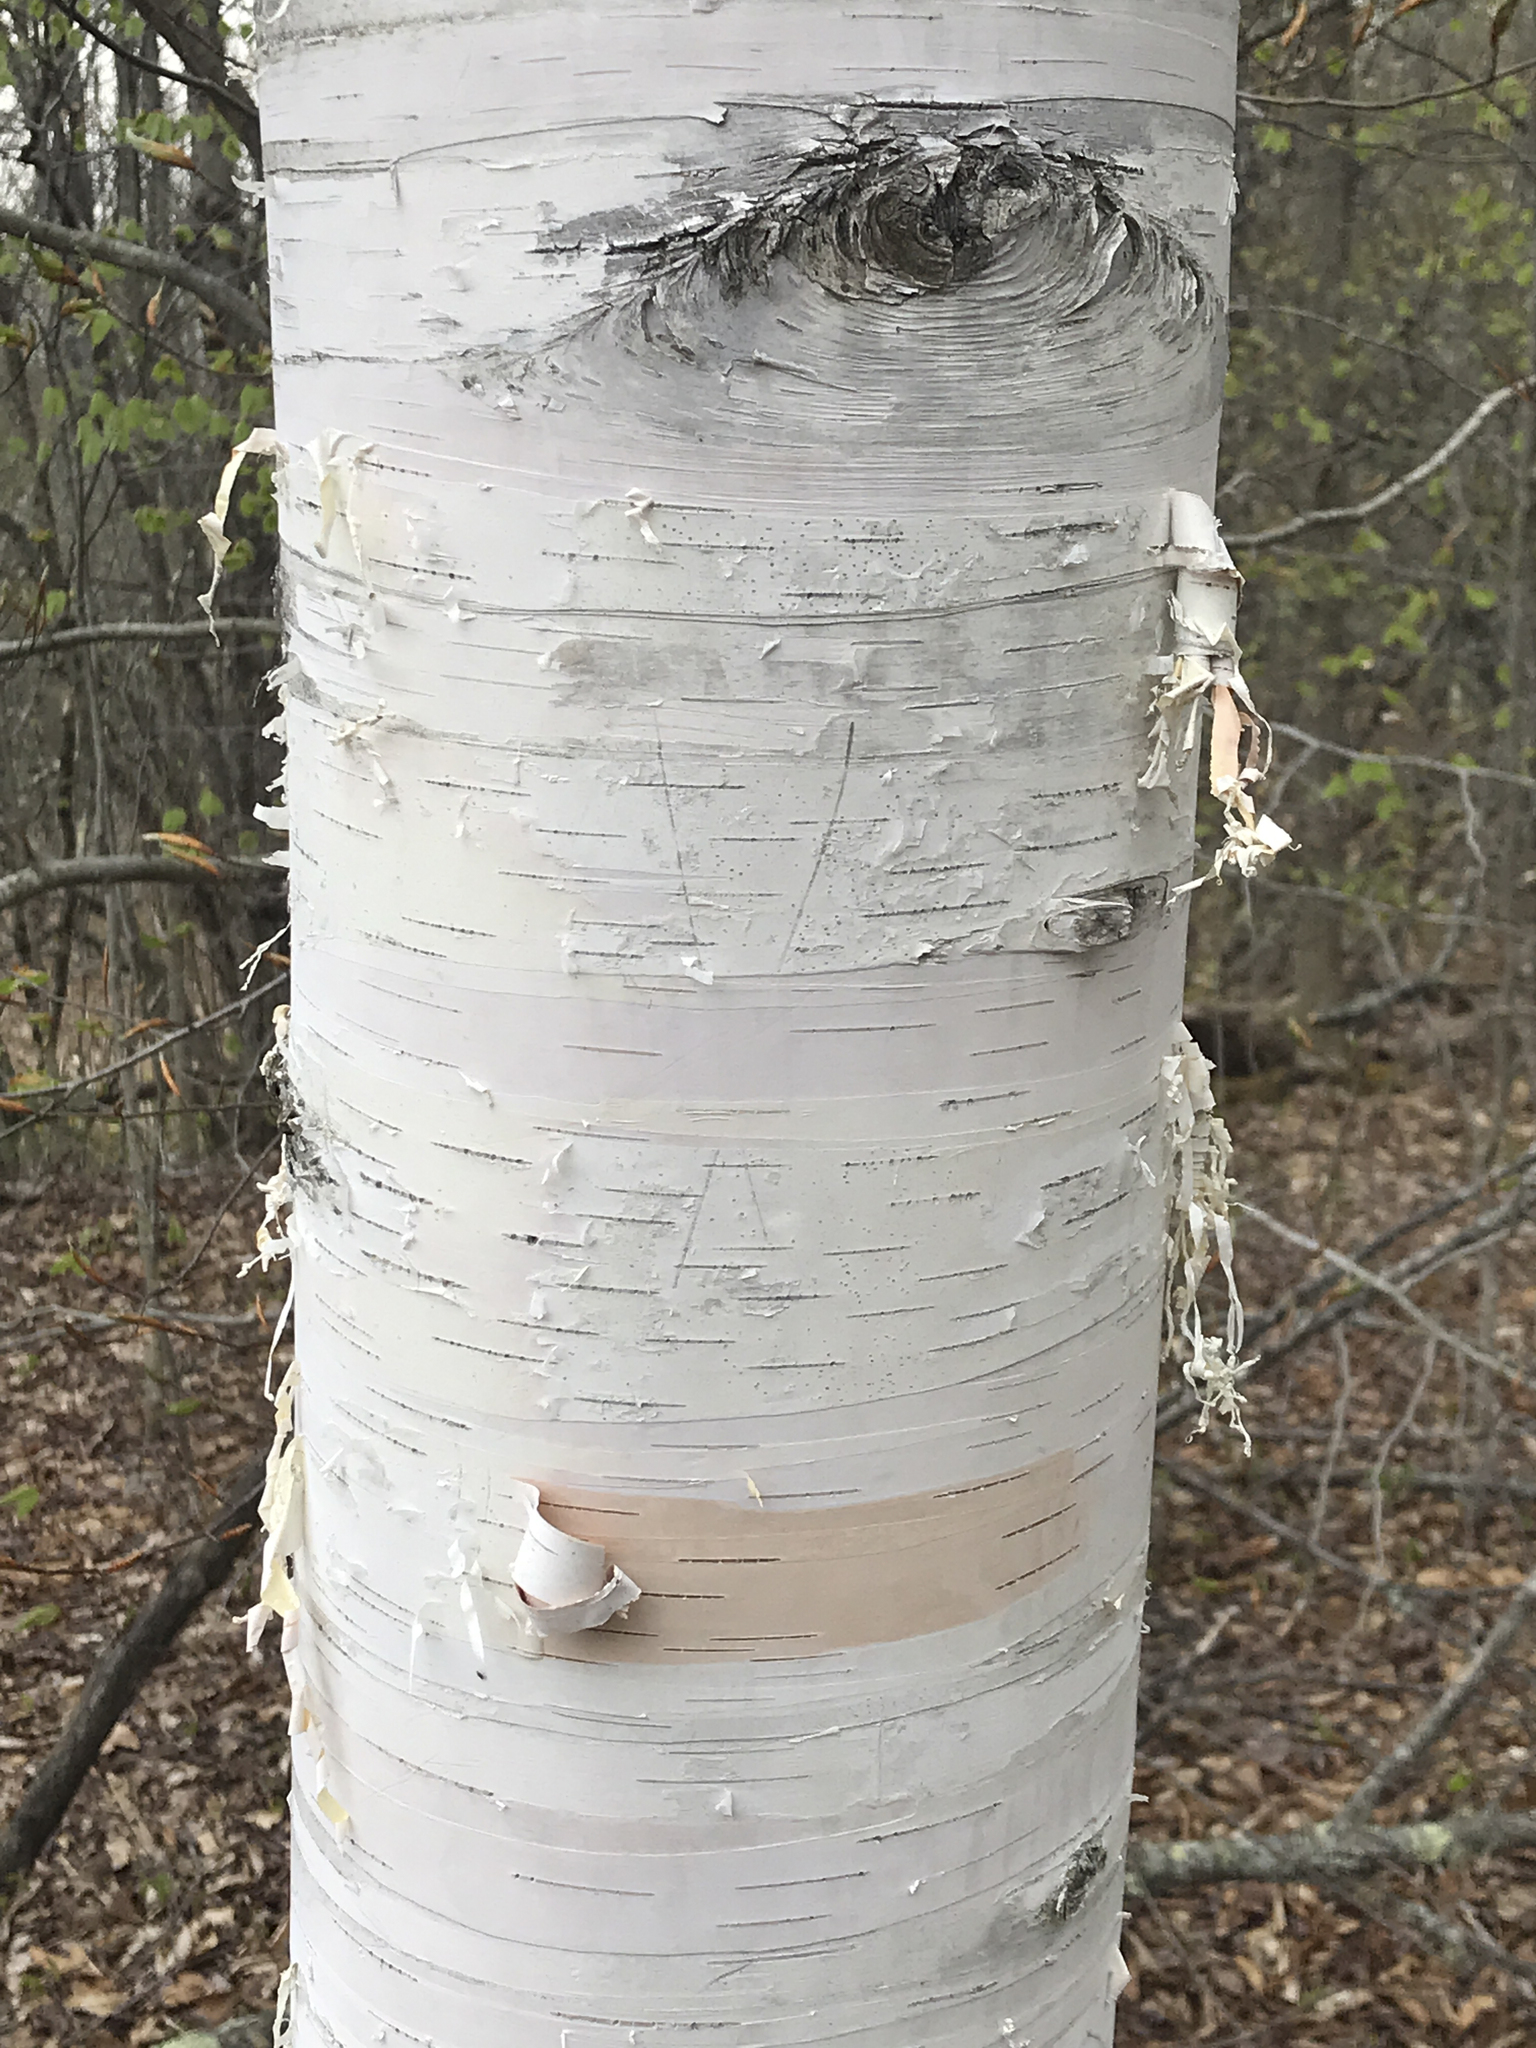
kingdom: Plantae
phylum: Tracheophyta
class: Magnoliopsida
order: Fagales
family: Betulaceae
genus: Betula
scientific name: Betula papyrifera
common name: Paper birch
